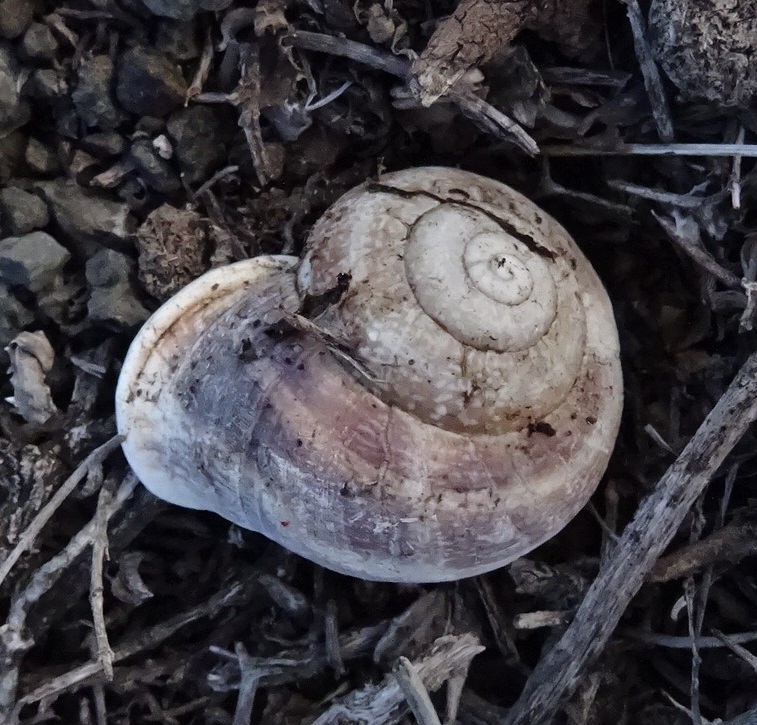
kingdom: Animalia
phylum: Mollusca
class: Gastropoda
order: Stylommatophora
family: Helicidae
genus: Otala
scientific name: Otala lactea
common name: Milk snail
